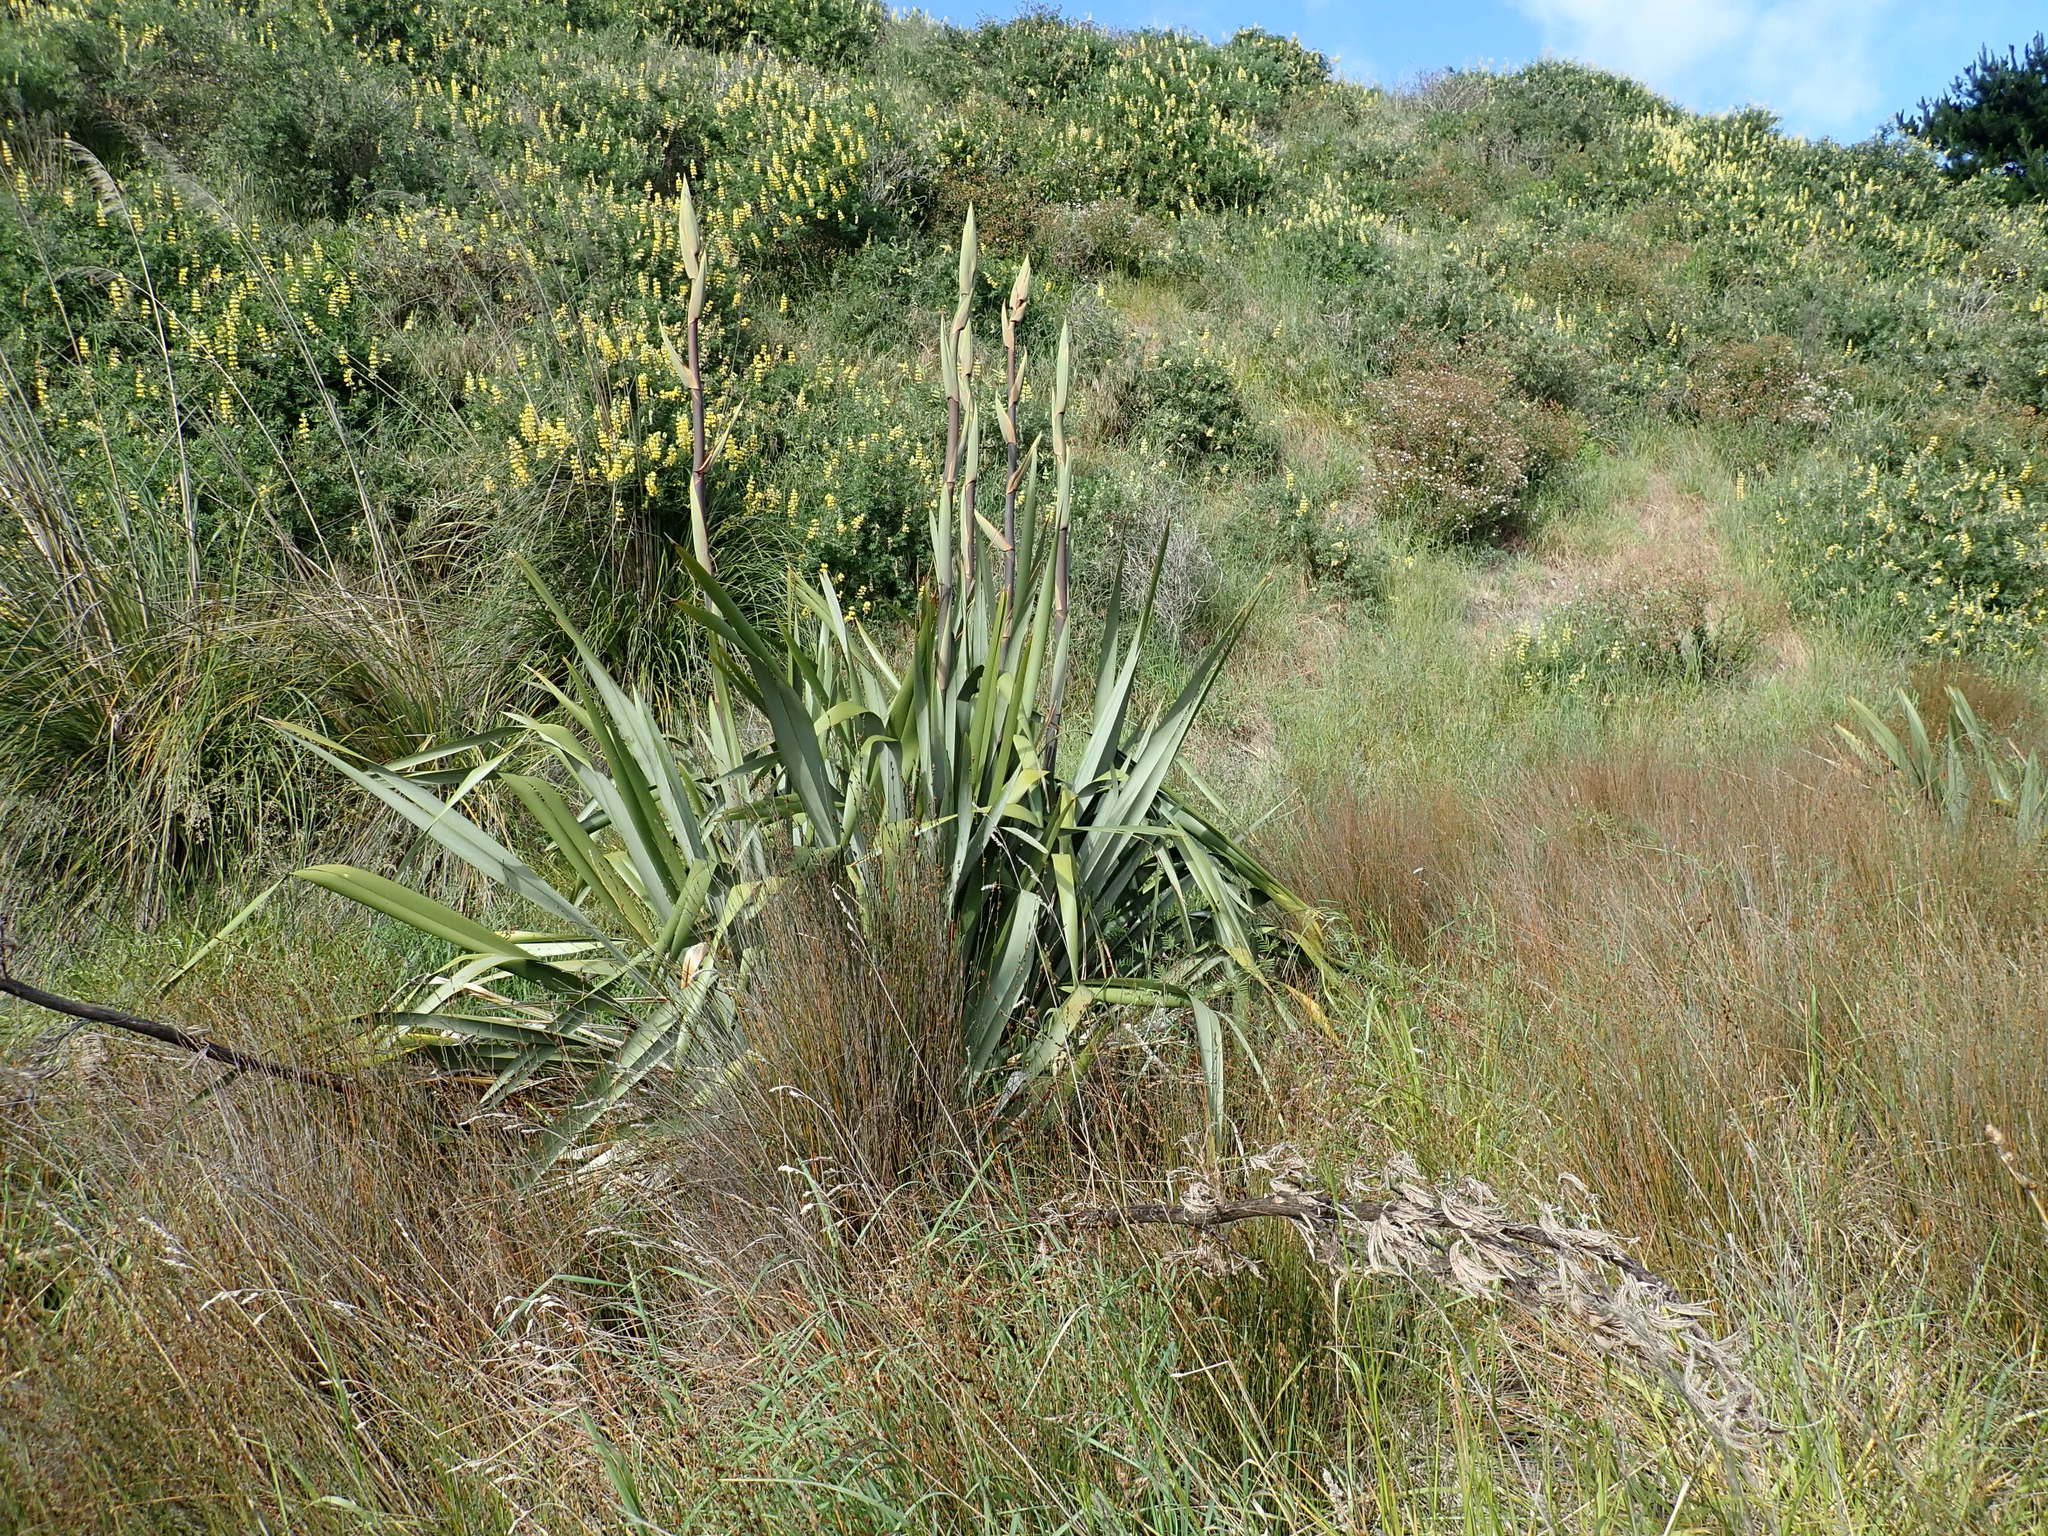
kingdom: Plantae
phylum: Tracheophyta
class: Liliopsida
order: Asparagales
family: Asphodelaceae
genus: Phormium
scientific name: Phormium tenax
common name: New zealand flax
